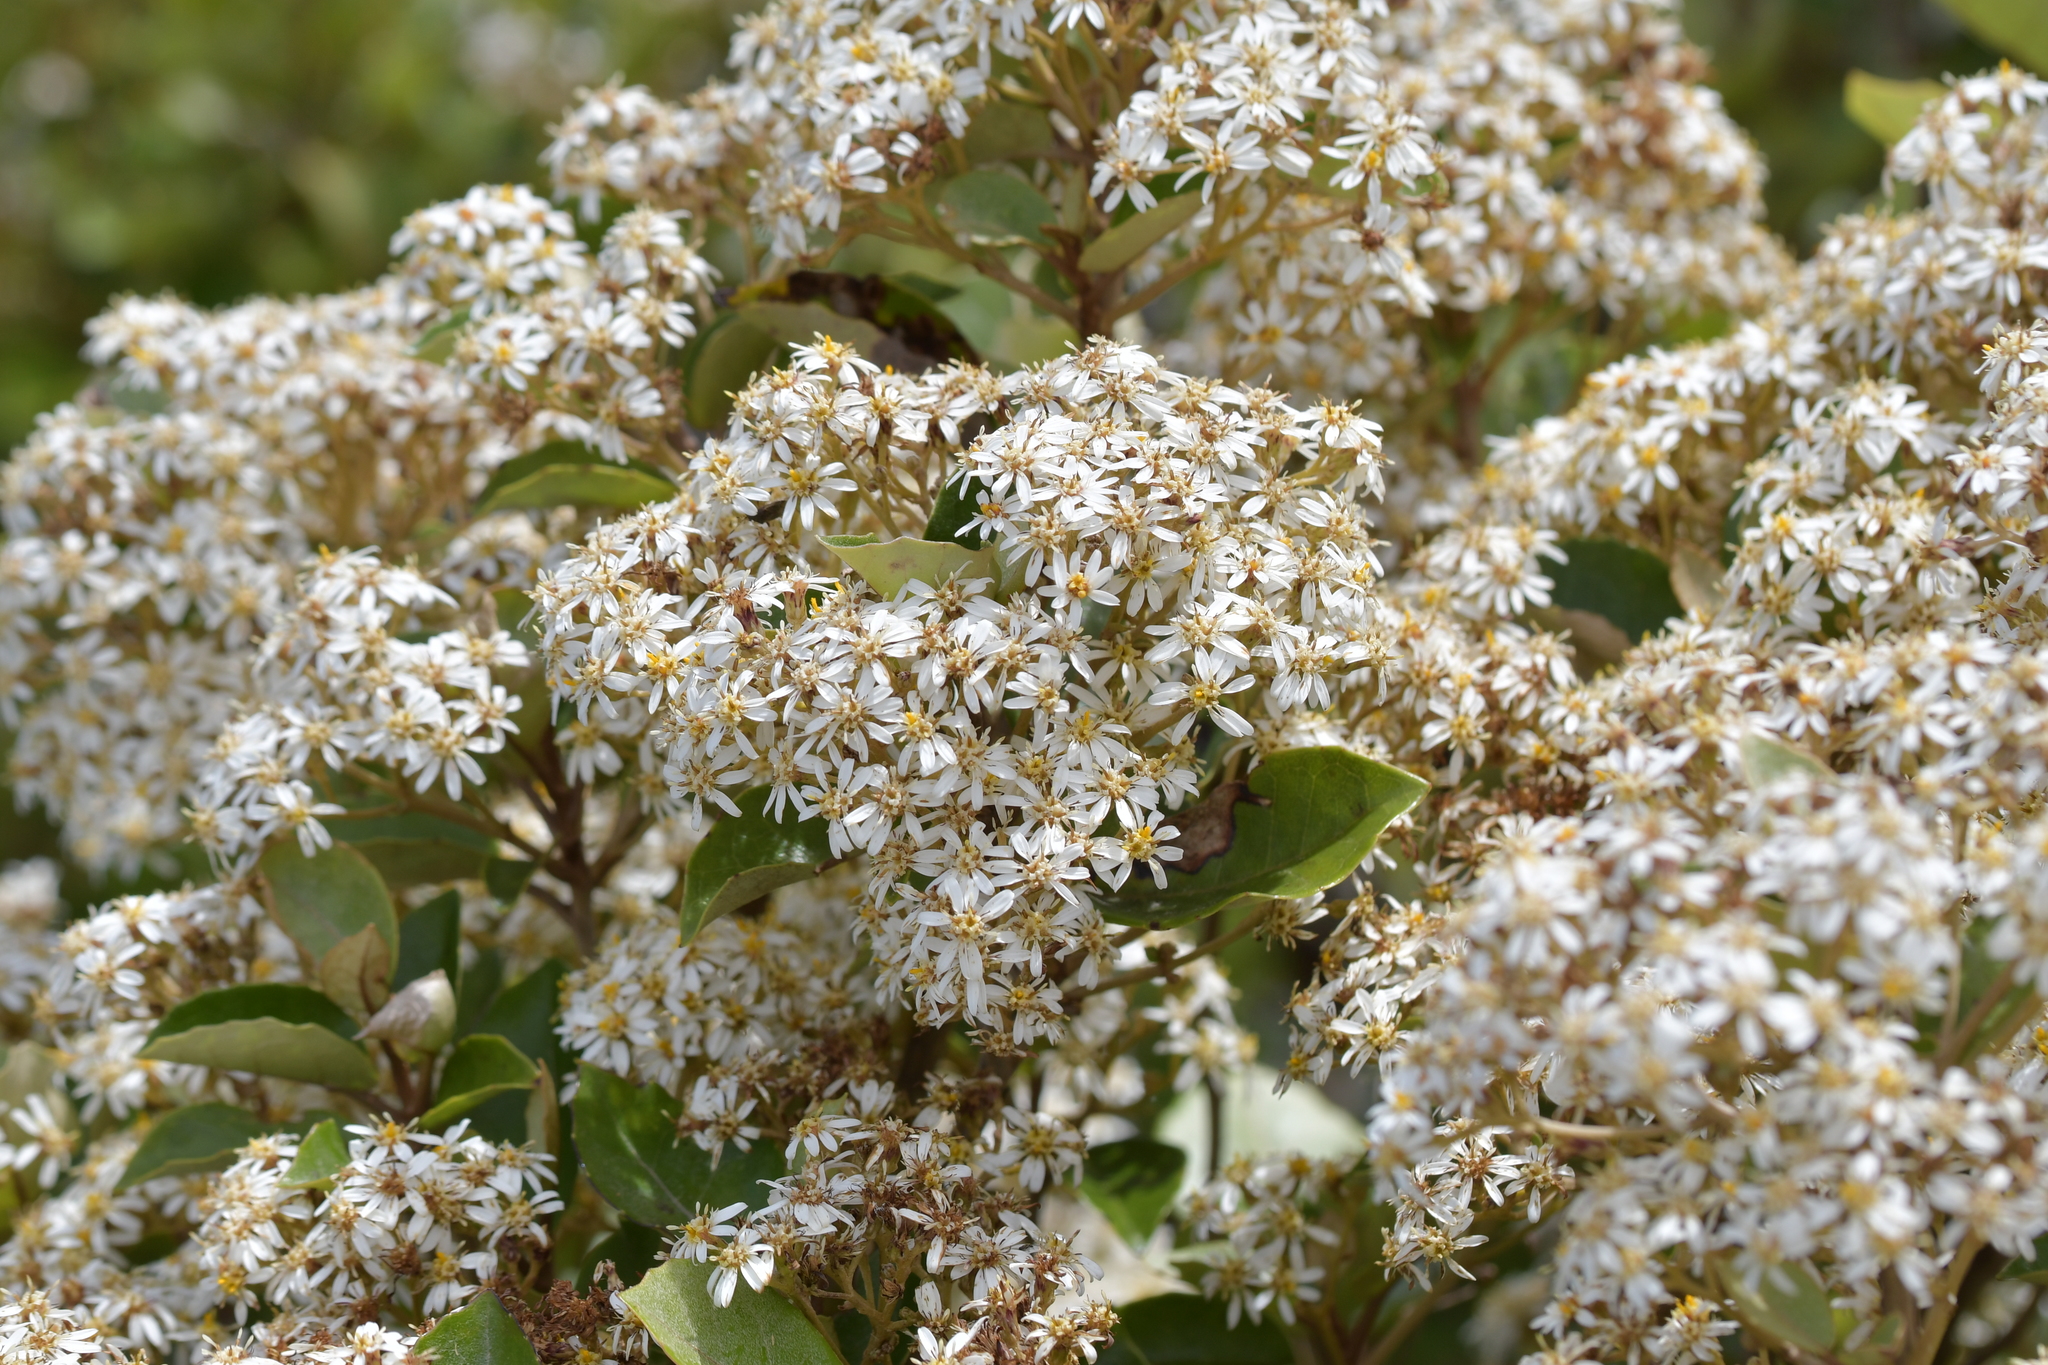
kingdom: Plantae
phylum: Tracheophyta
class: Magnoliopsida
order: Asterales
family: Asteraceae
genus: Olearia
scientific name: Olearia arborescens
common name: Glossy tree daisy
